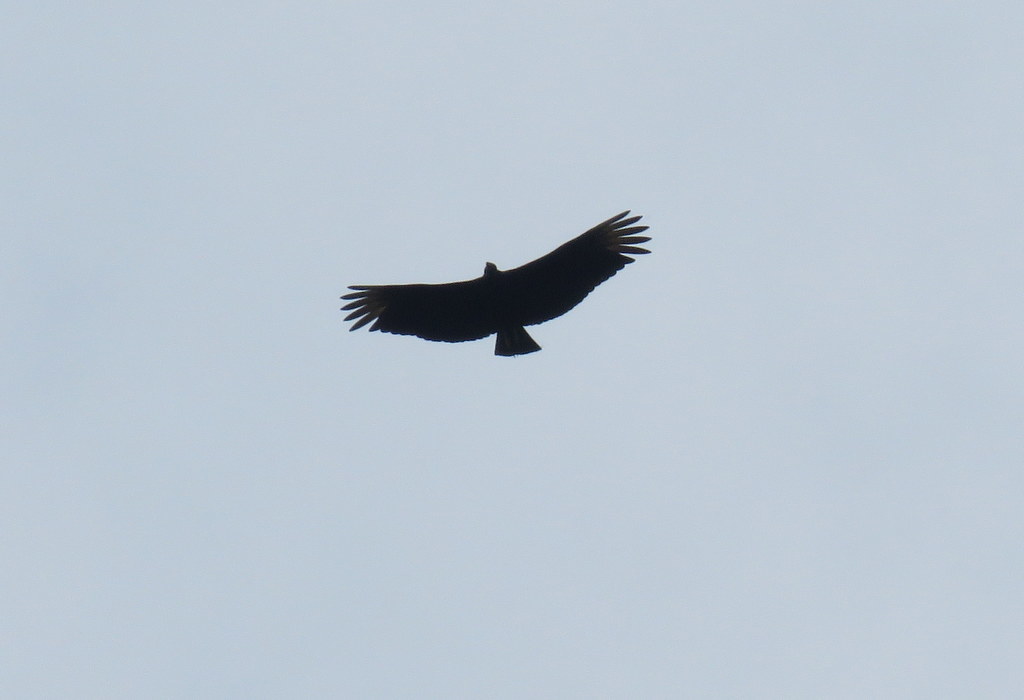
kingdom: Animalia
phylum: Chordata
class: Aves
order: Accipitriformes
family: Cathartidae
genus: Coragyps
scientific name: Coragyps atratus
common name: Black vulture
